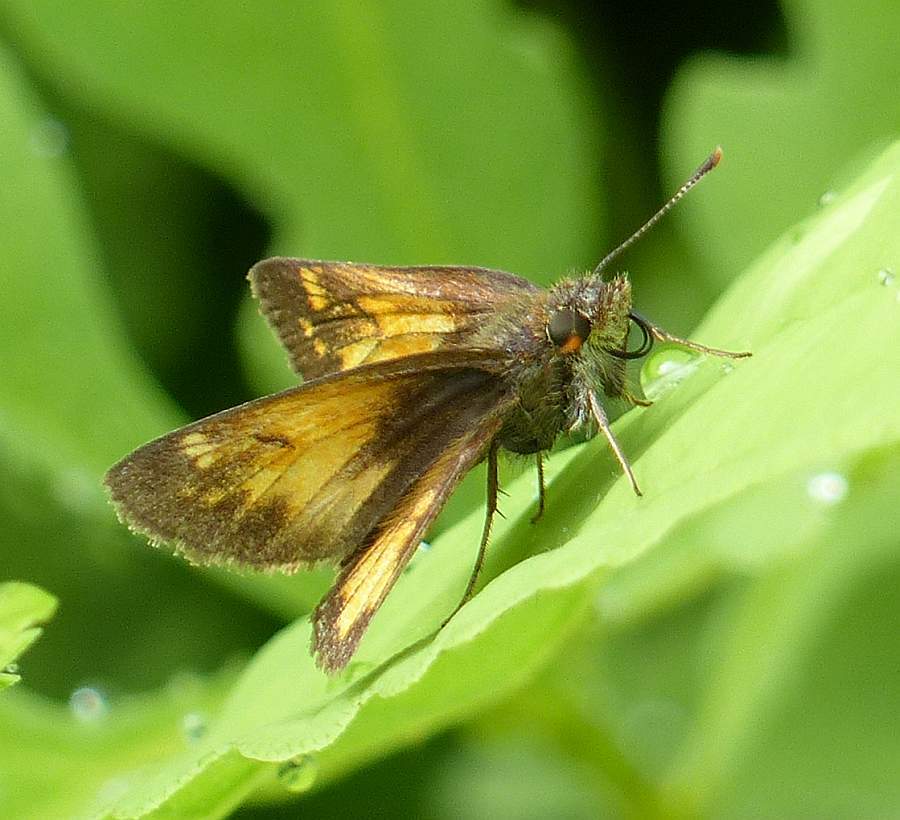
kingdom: Animalia
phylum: Arthropoda
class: Insecta
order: Lepidoptera
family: Hesperiidae
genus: Lon
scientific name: Lon hobomok
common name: Hobomok skipper
